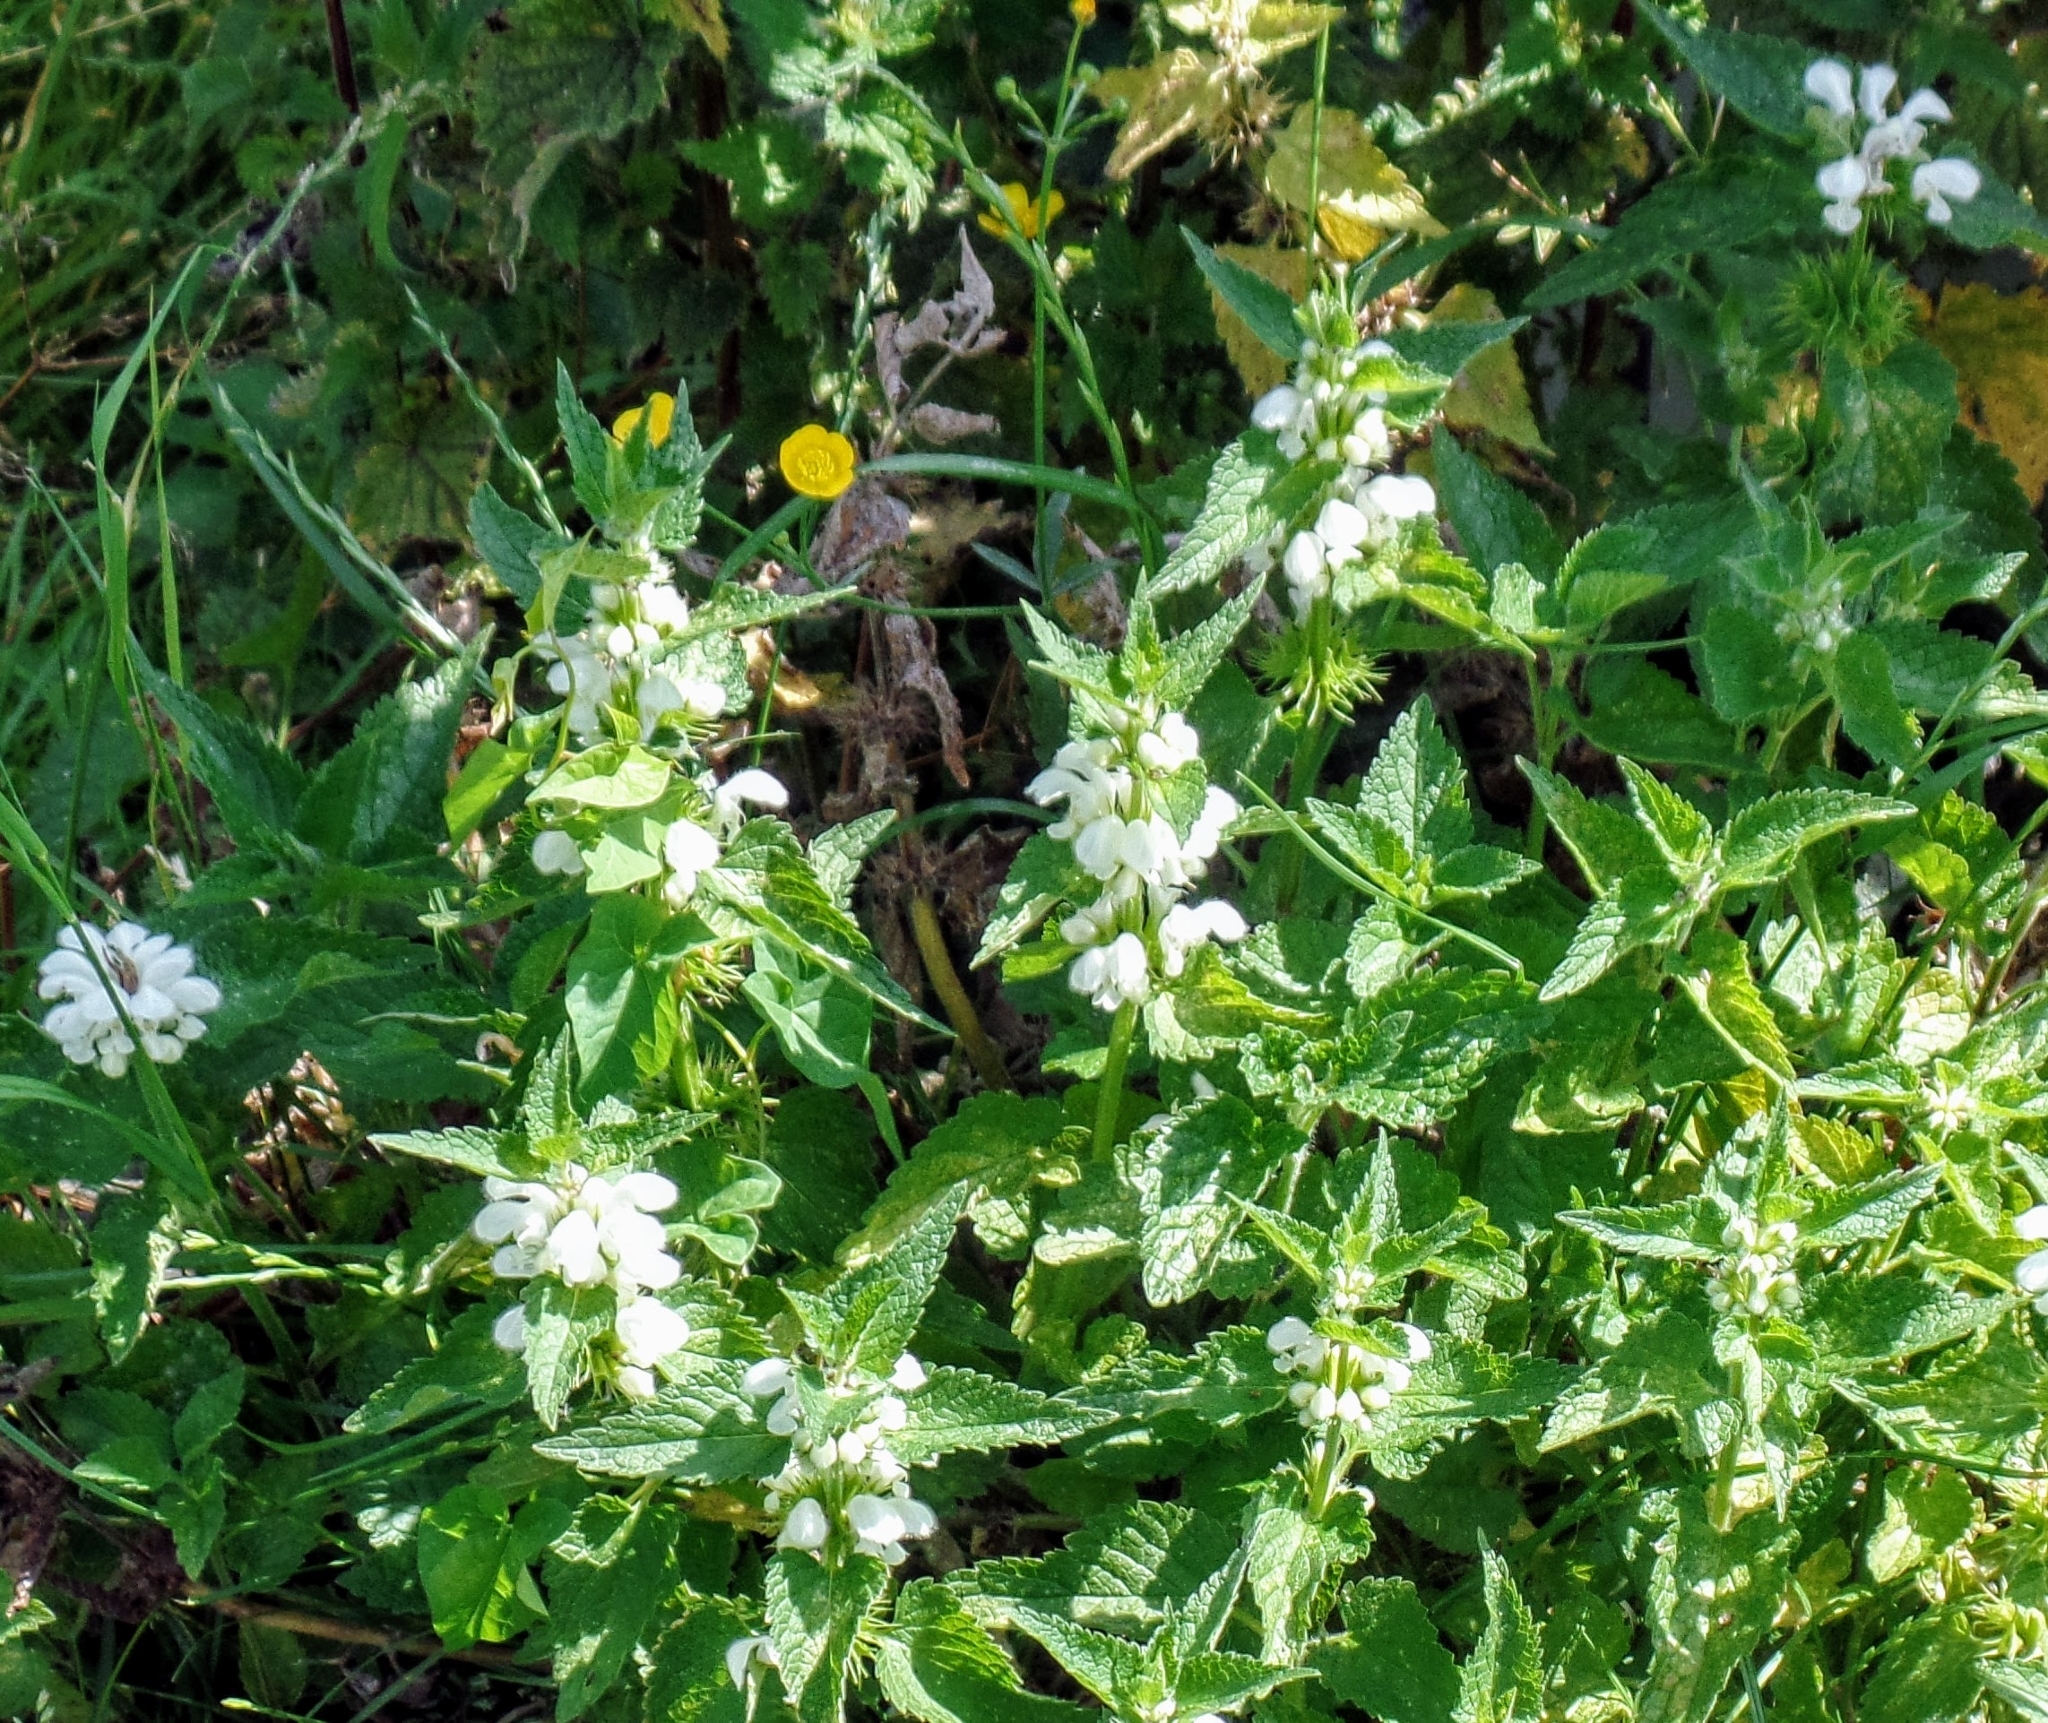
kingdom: Plantae
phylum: Tracheophyta
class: Magnoliopsida
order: Lamiales
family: Lamiaceae
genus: Lamium
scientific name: Lamium album
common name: White dead-nettle
